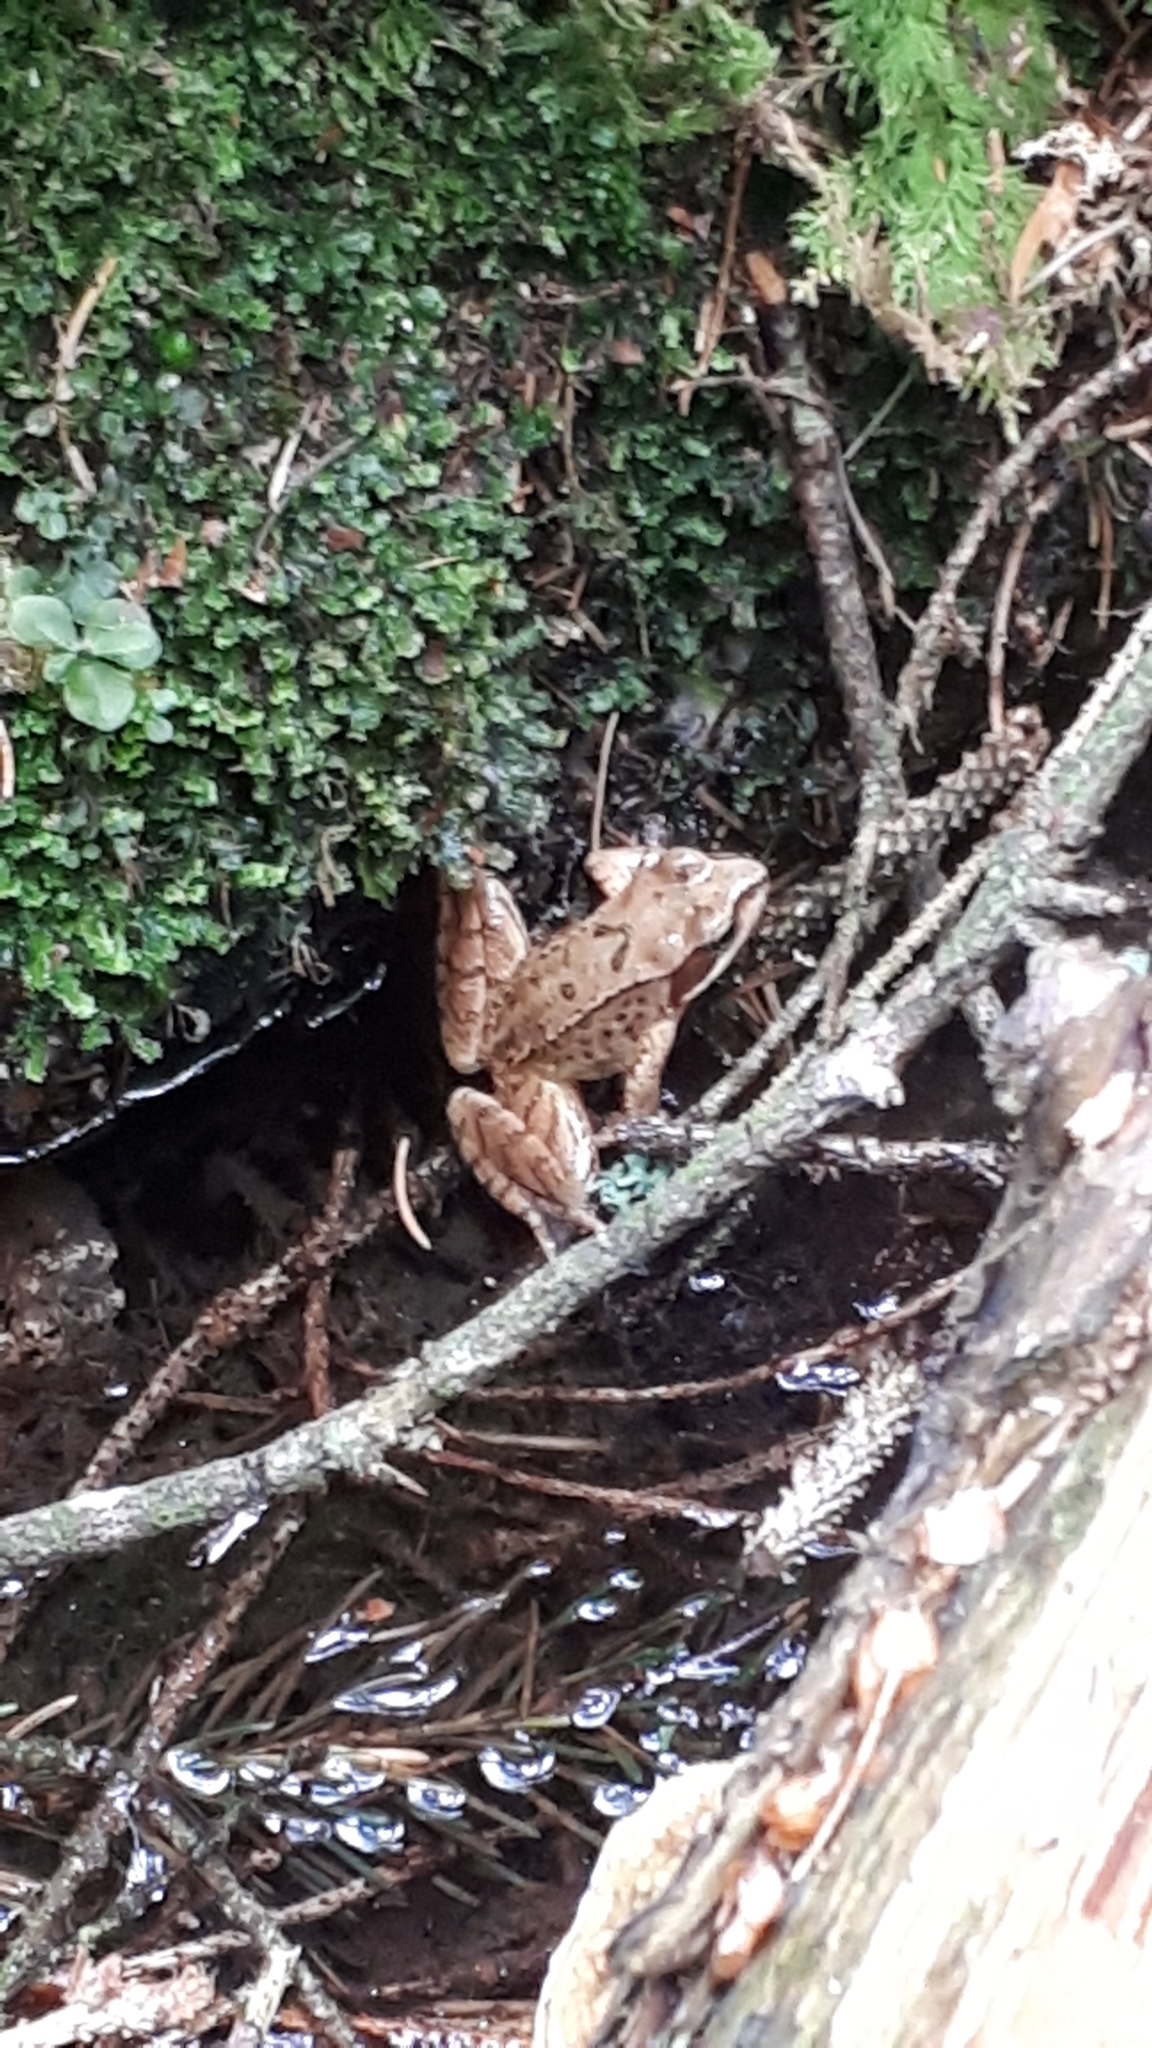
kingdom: Animalia
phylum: Chordata
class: Amphibia
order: Anura
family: Ranidae
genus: Rana
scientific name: Rana temporaria
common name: Common frog
